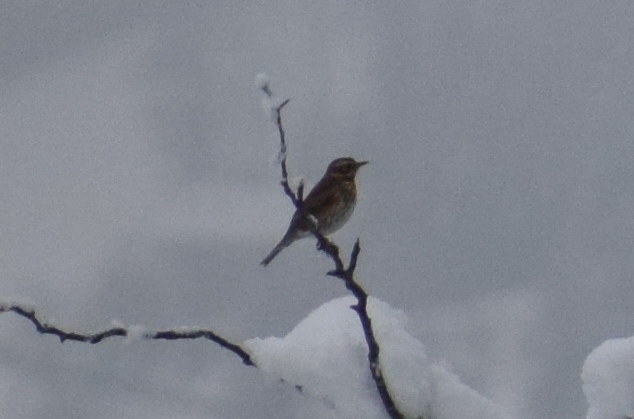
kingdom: Animalia
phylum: Chordata
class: Aves
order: Passeriformes
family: Turdidae
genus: Turdus
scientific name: Turdus iliacus
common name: Redwing
